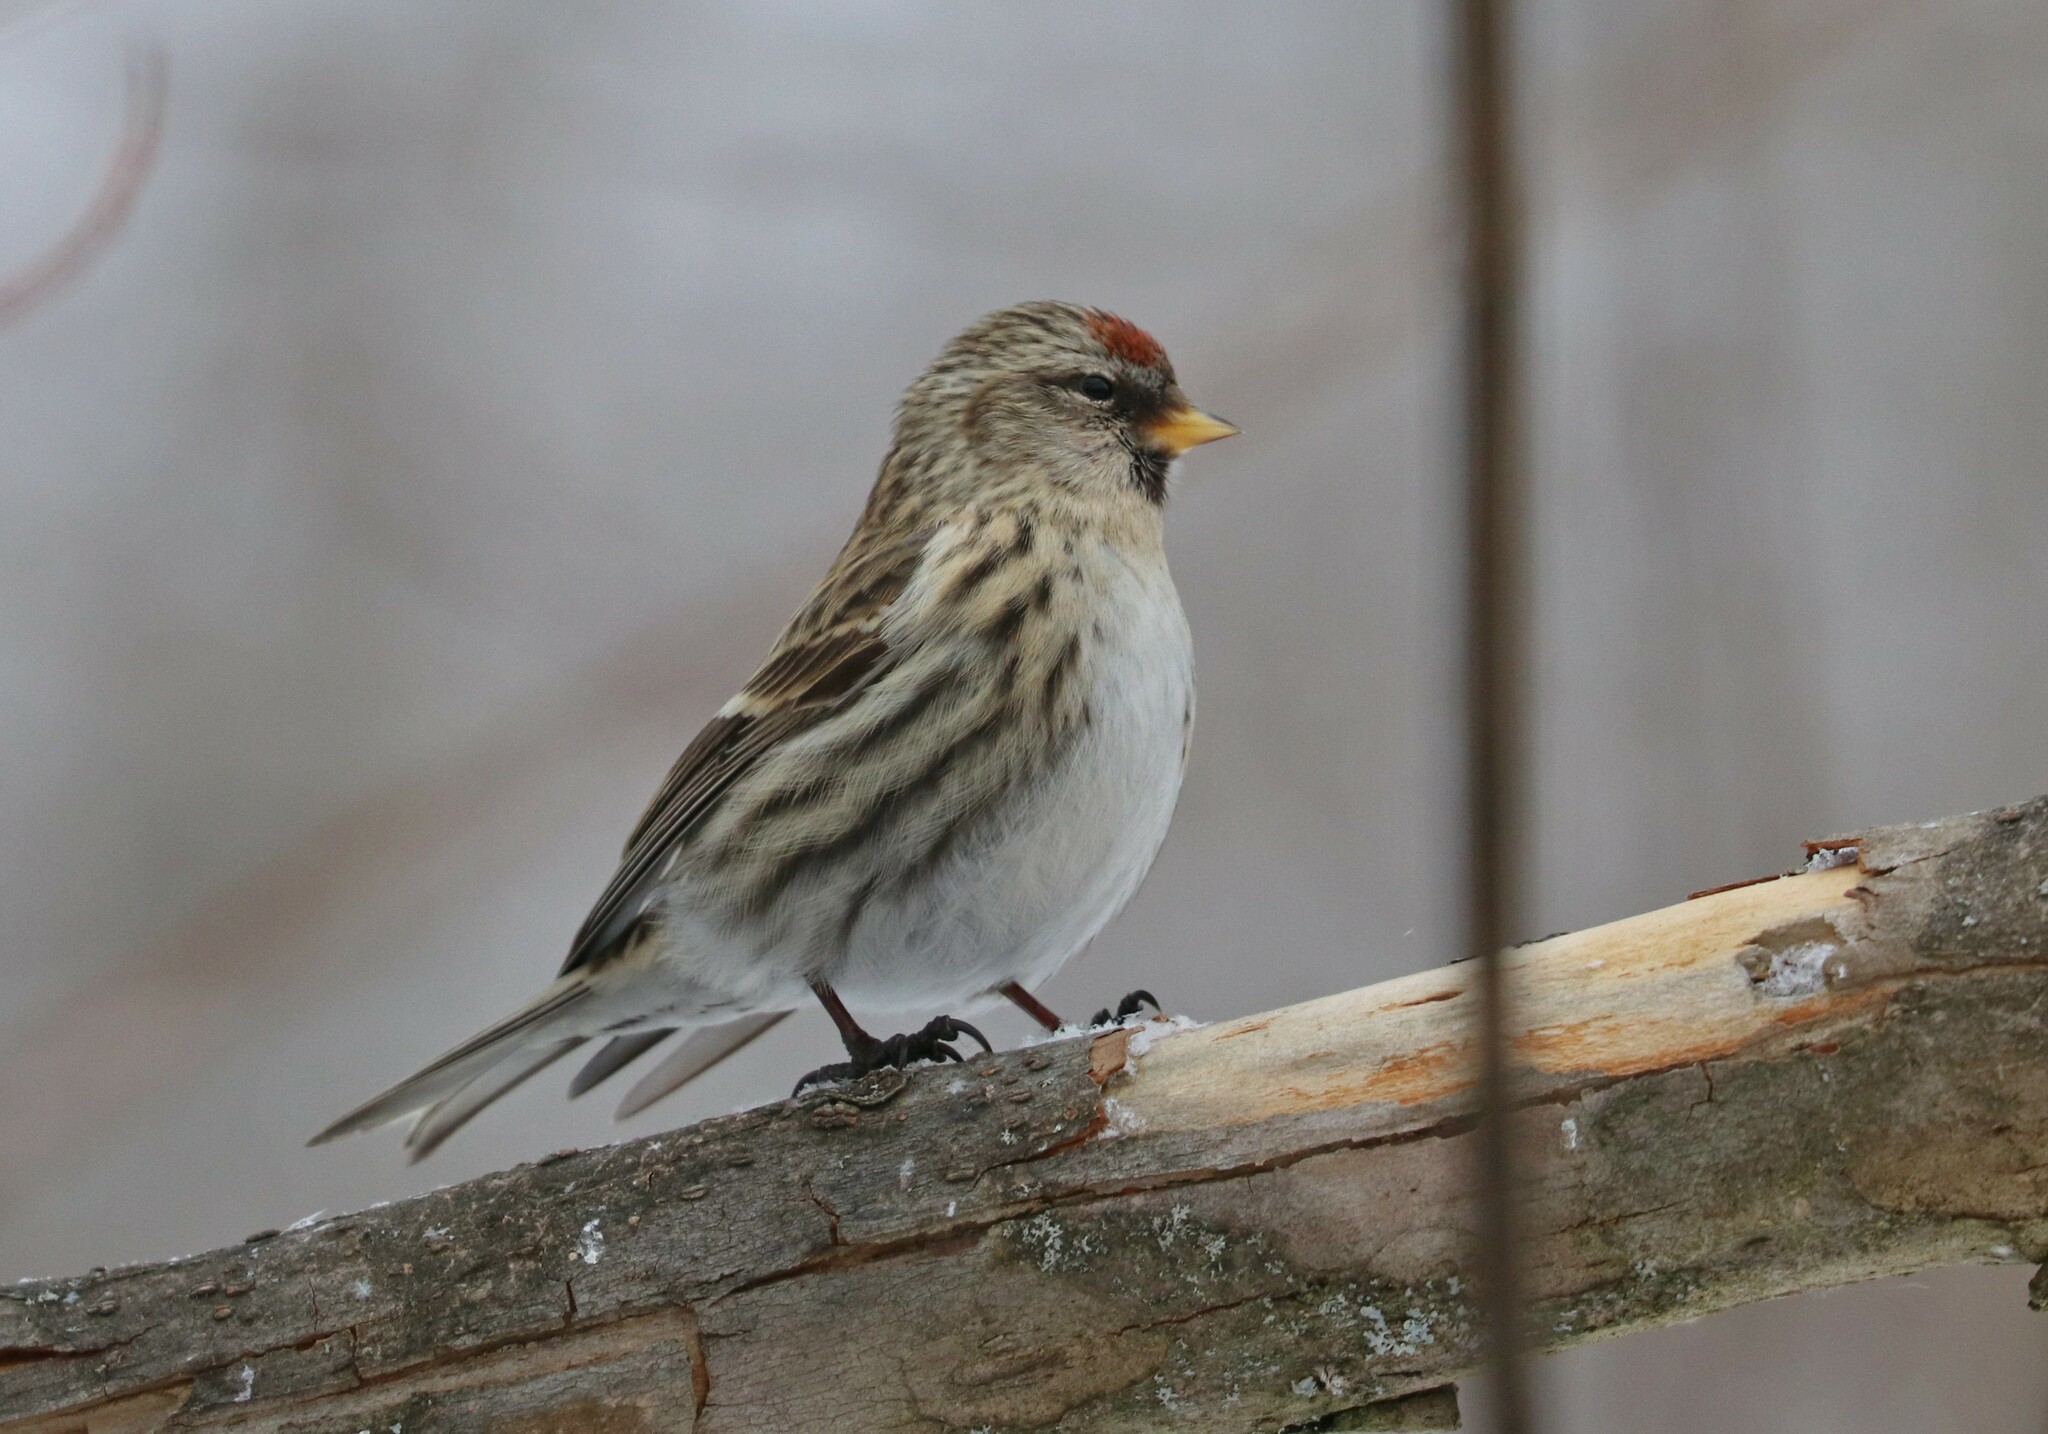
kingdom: Animalia
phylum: Chordata
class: Aves
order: Passeriformes
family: Fringillidae
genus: Acanthis
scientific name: Acanthis flammea
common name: Common redpoll
